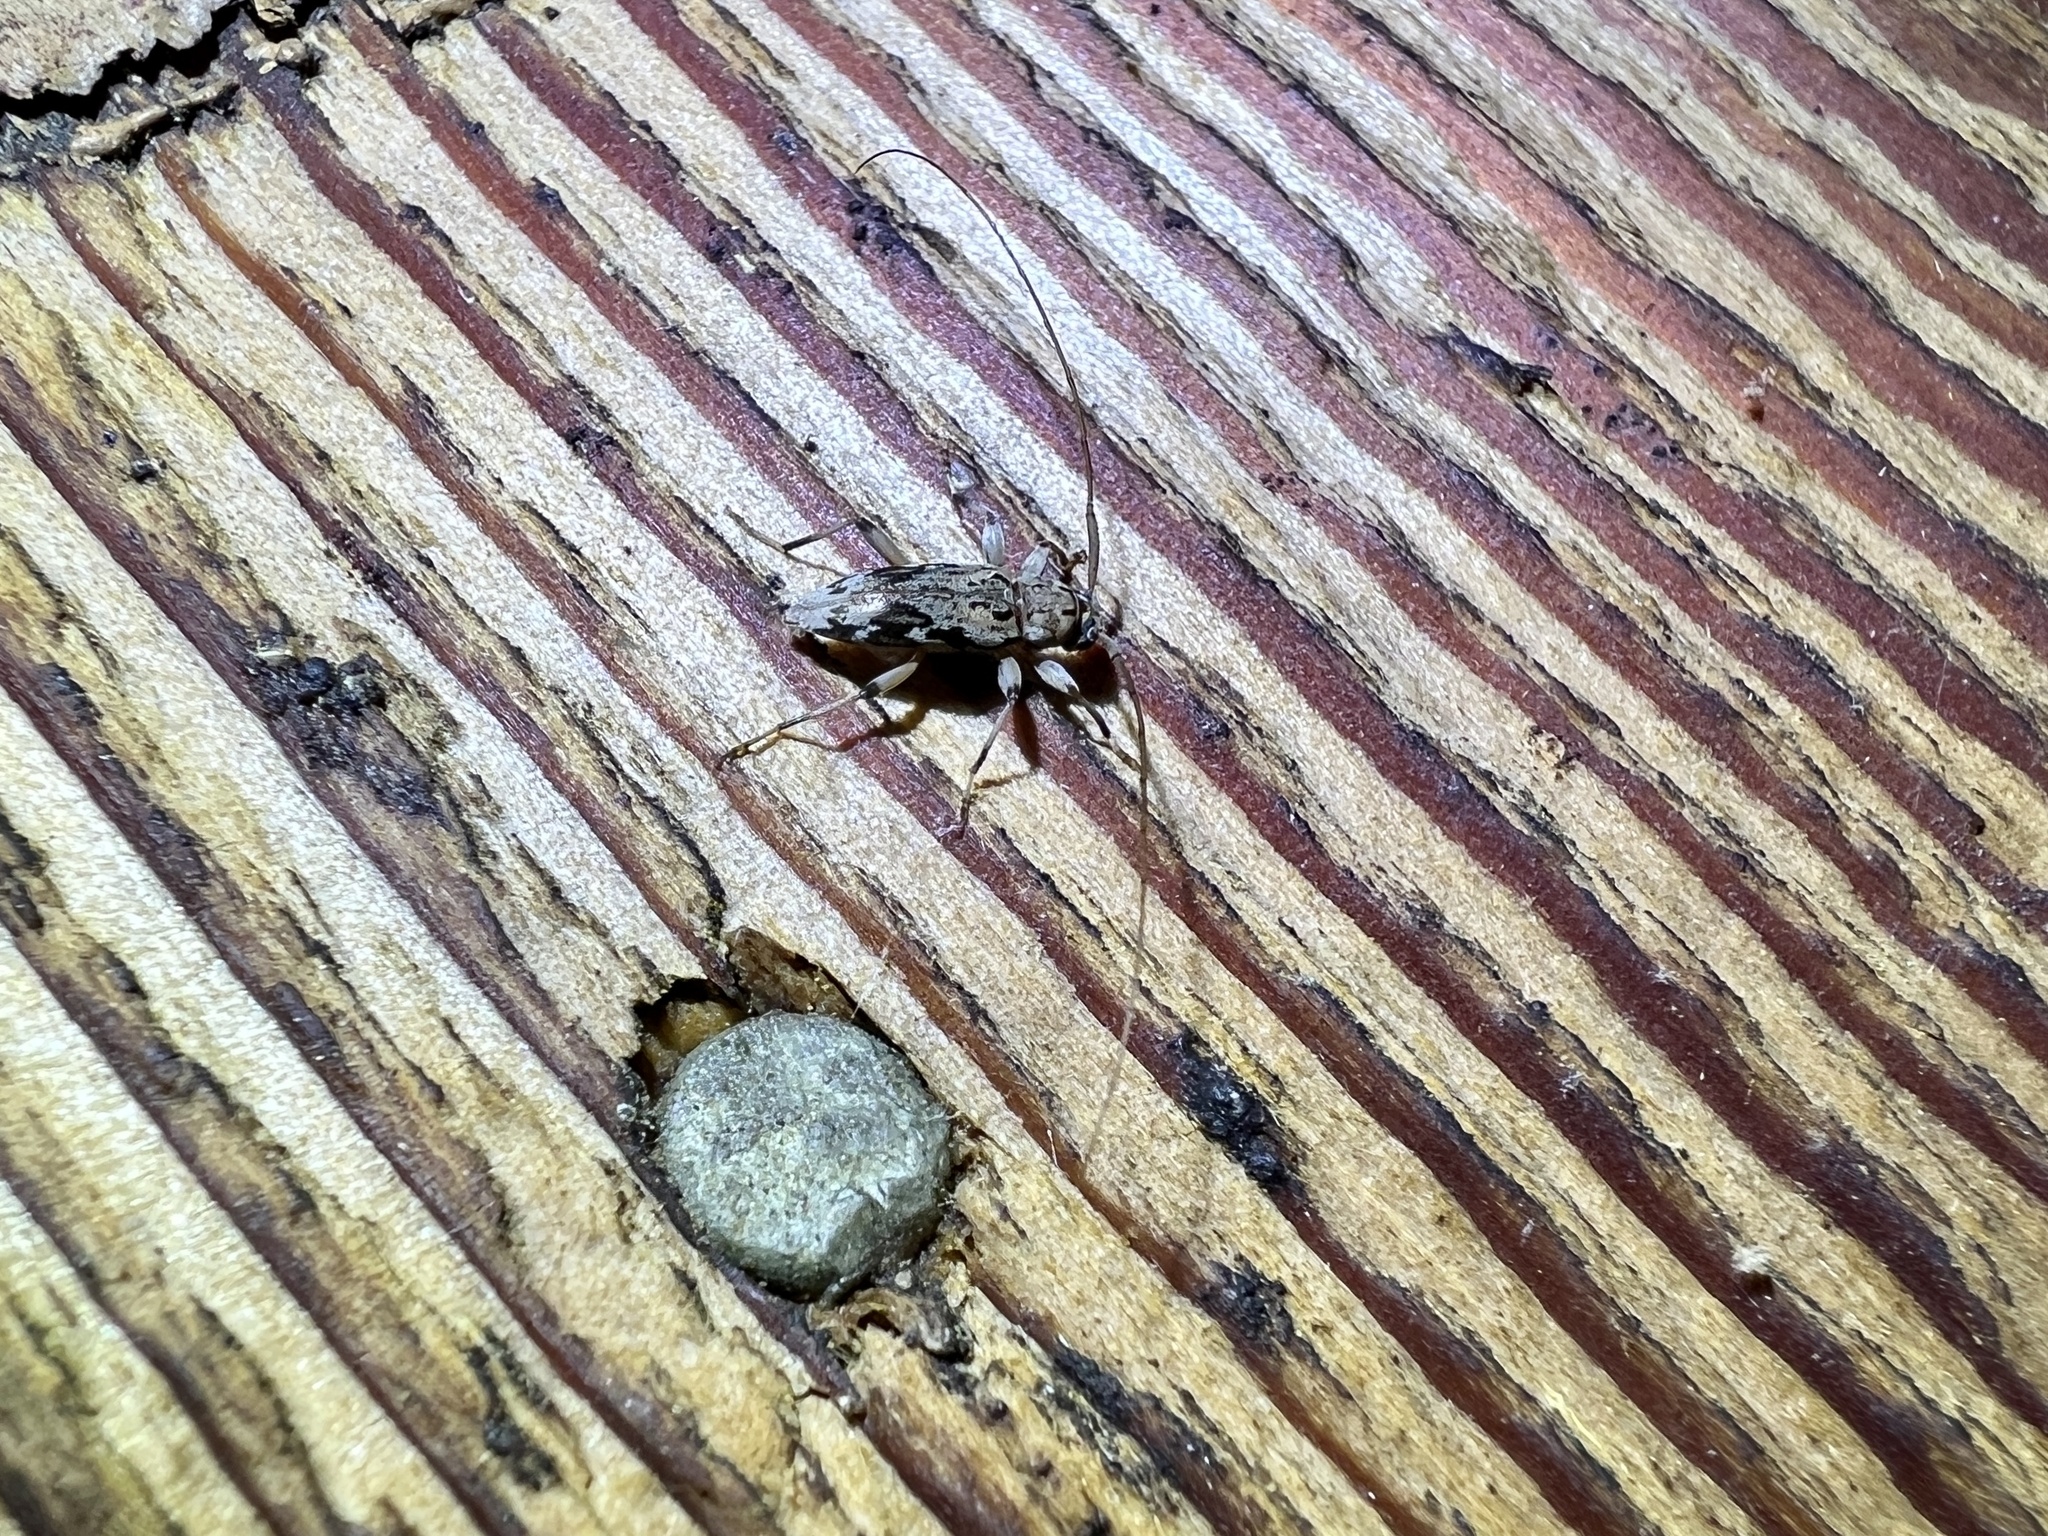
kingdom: Animalia
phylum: Arthropoda
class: Insecta
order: Coleoptera
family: Cerambycidae
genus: Lepturges
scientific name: Lepturges confluens
